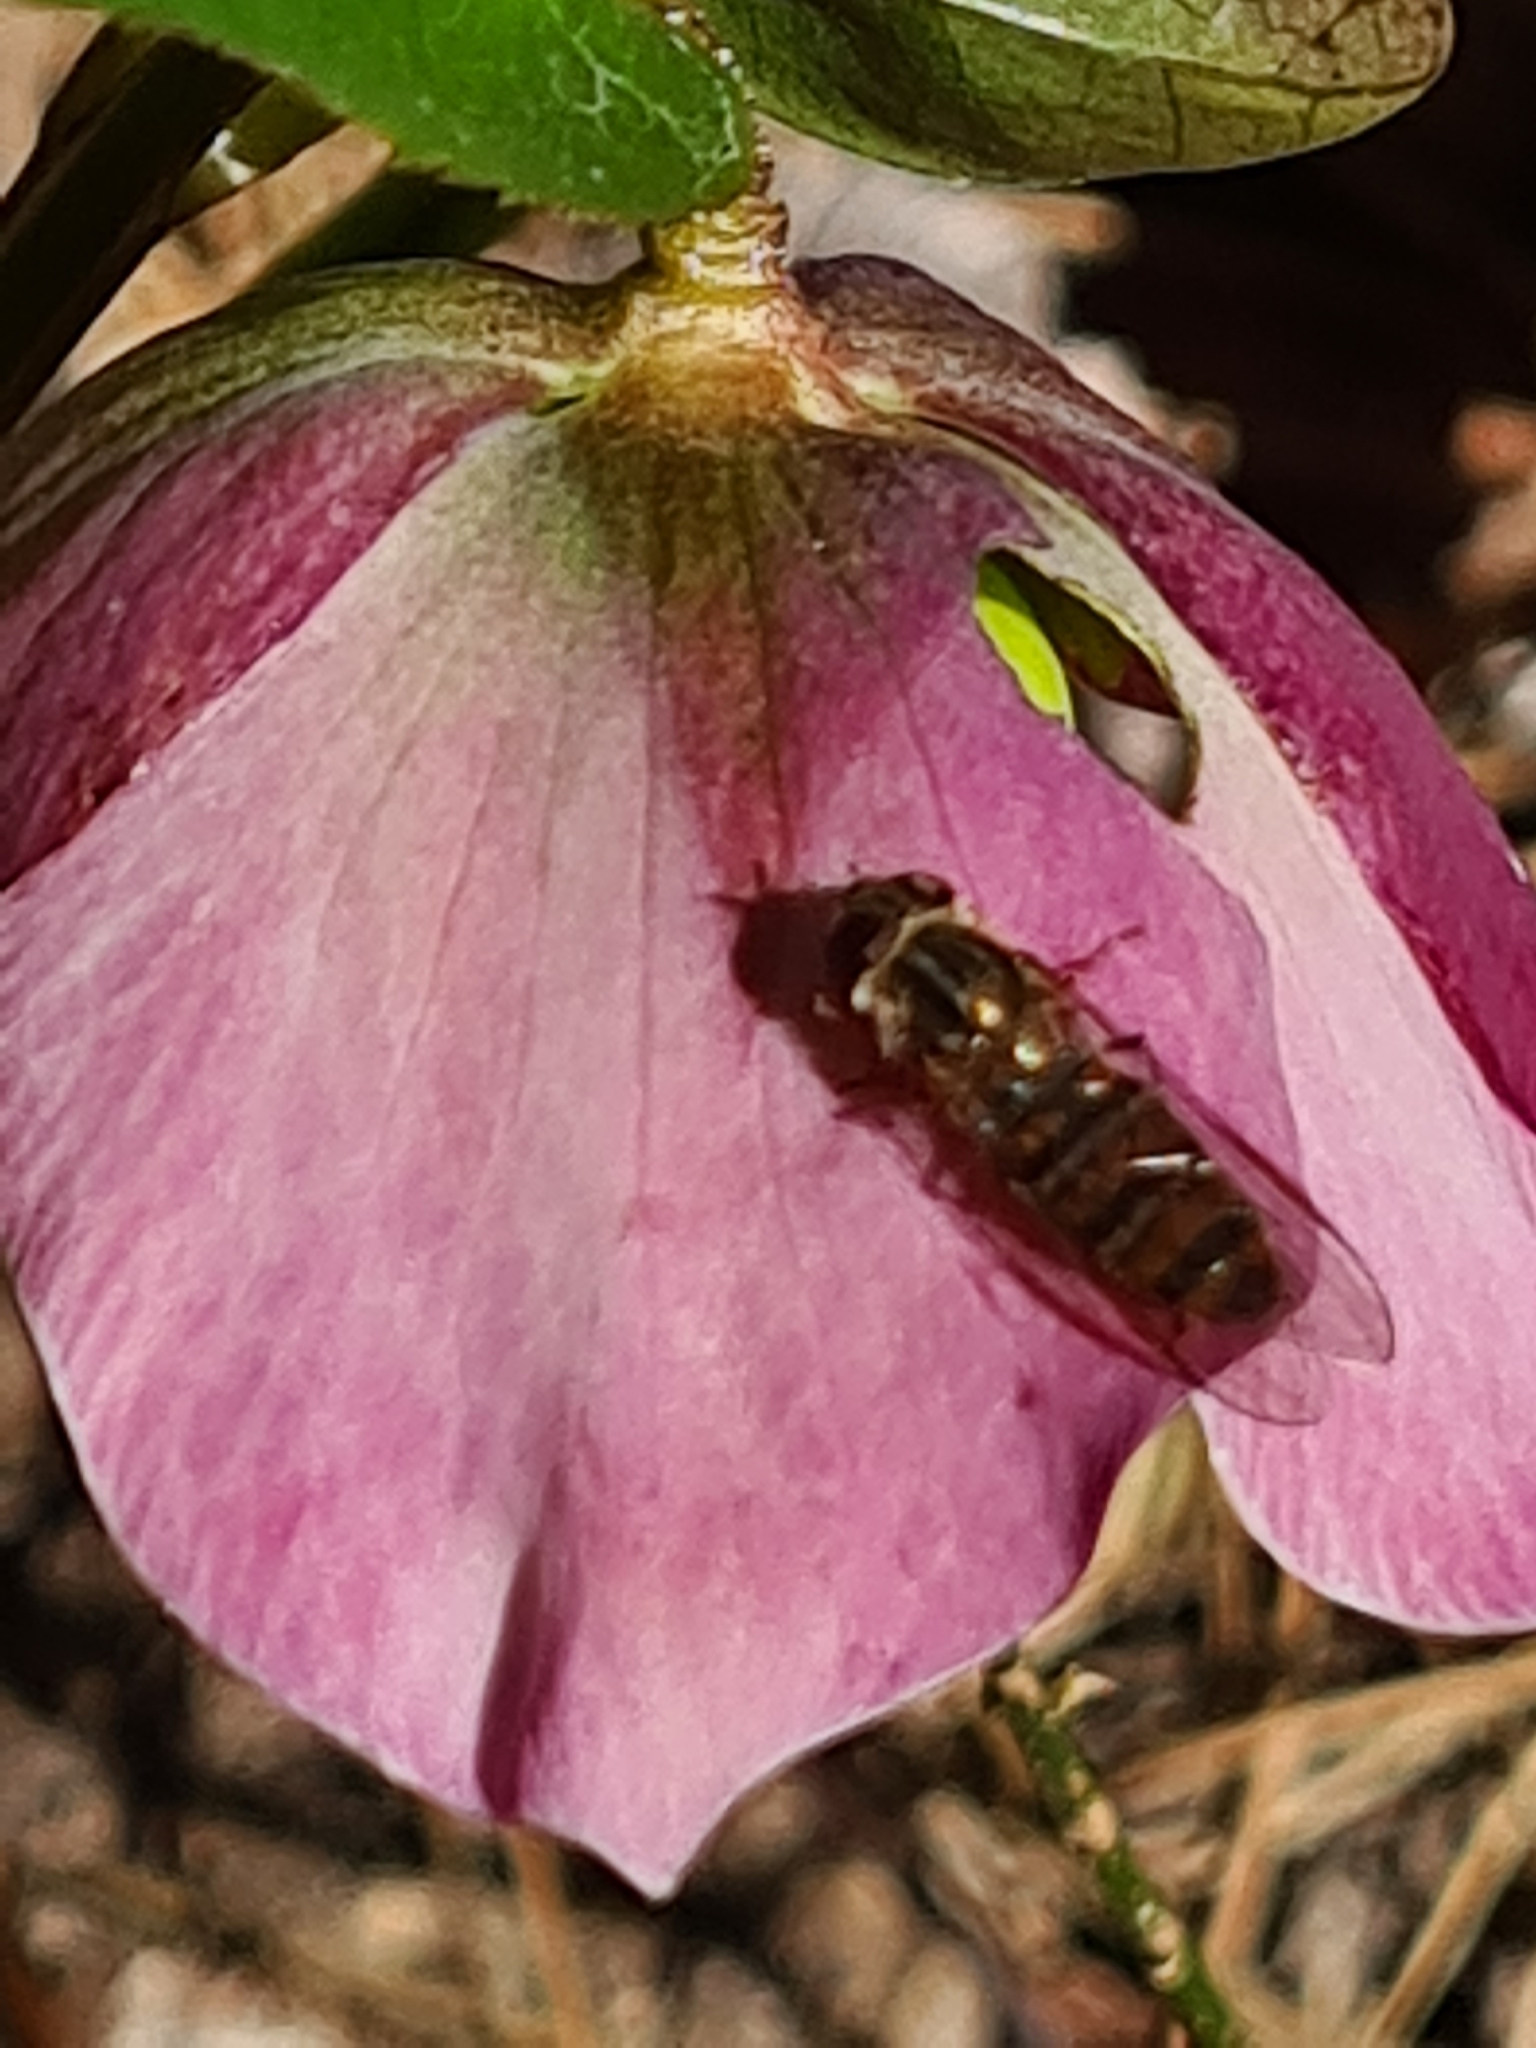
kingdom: Animalia
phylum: Arthropoda
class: Insecta
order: Diptera
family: Syrphidae
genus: Episyrphus
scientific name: Episyrphus balteatus
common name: Marmalade hoverfly
